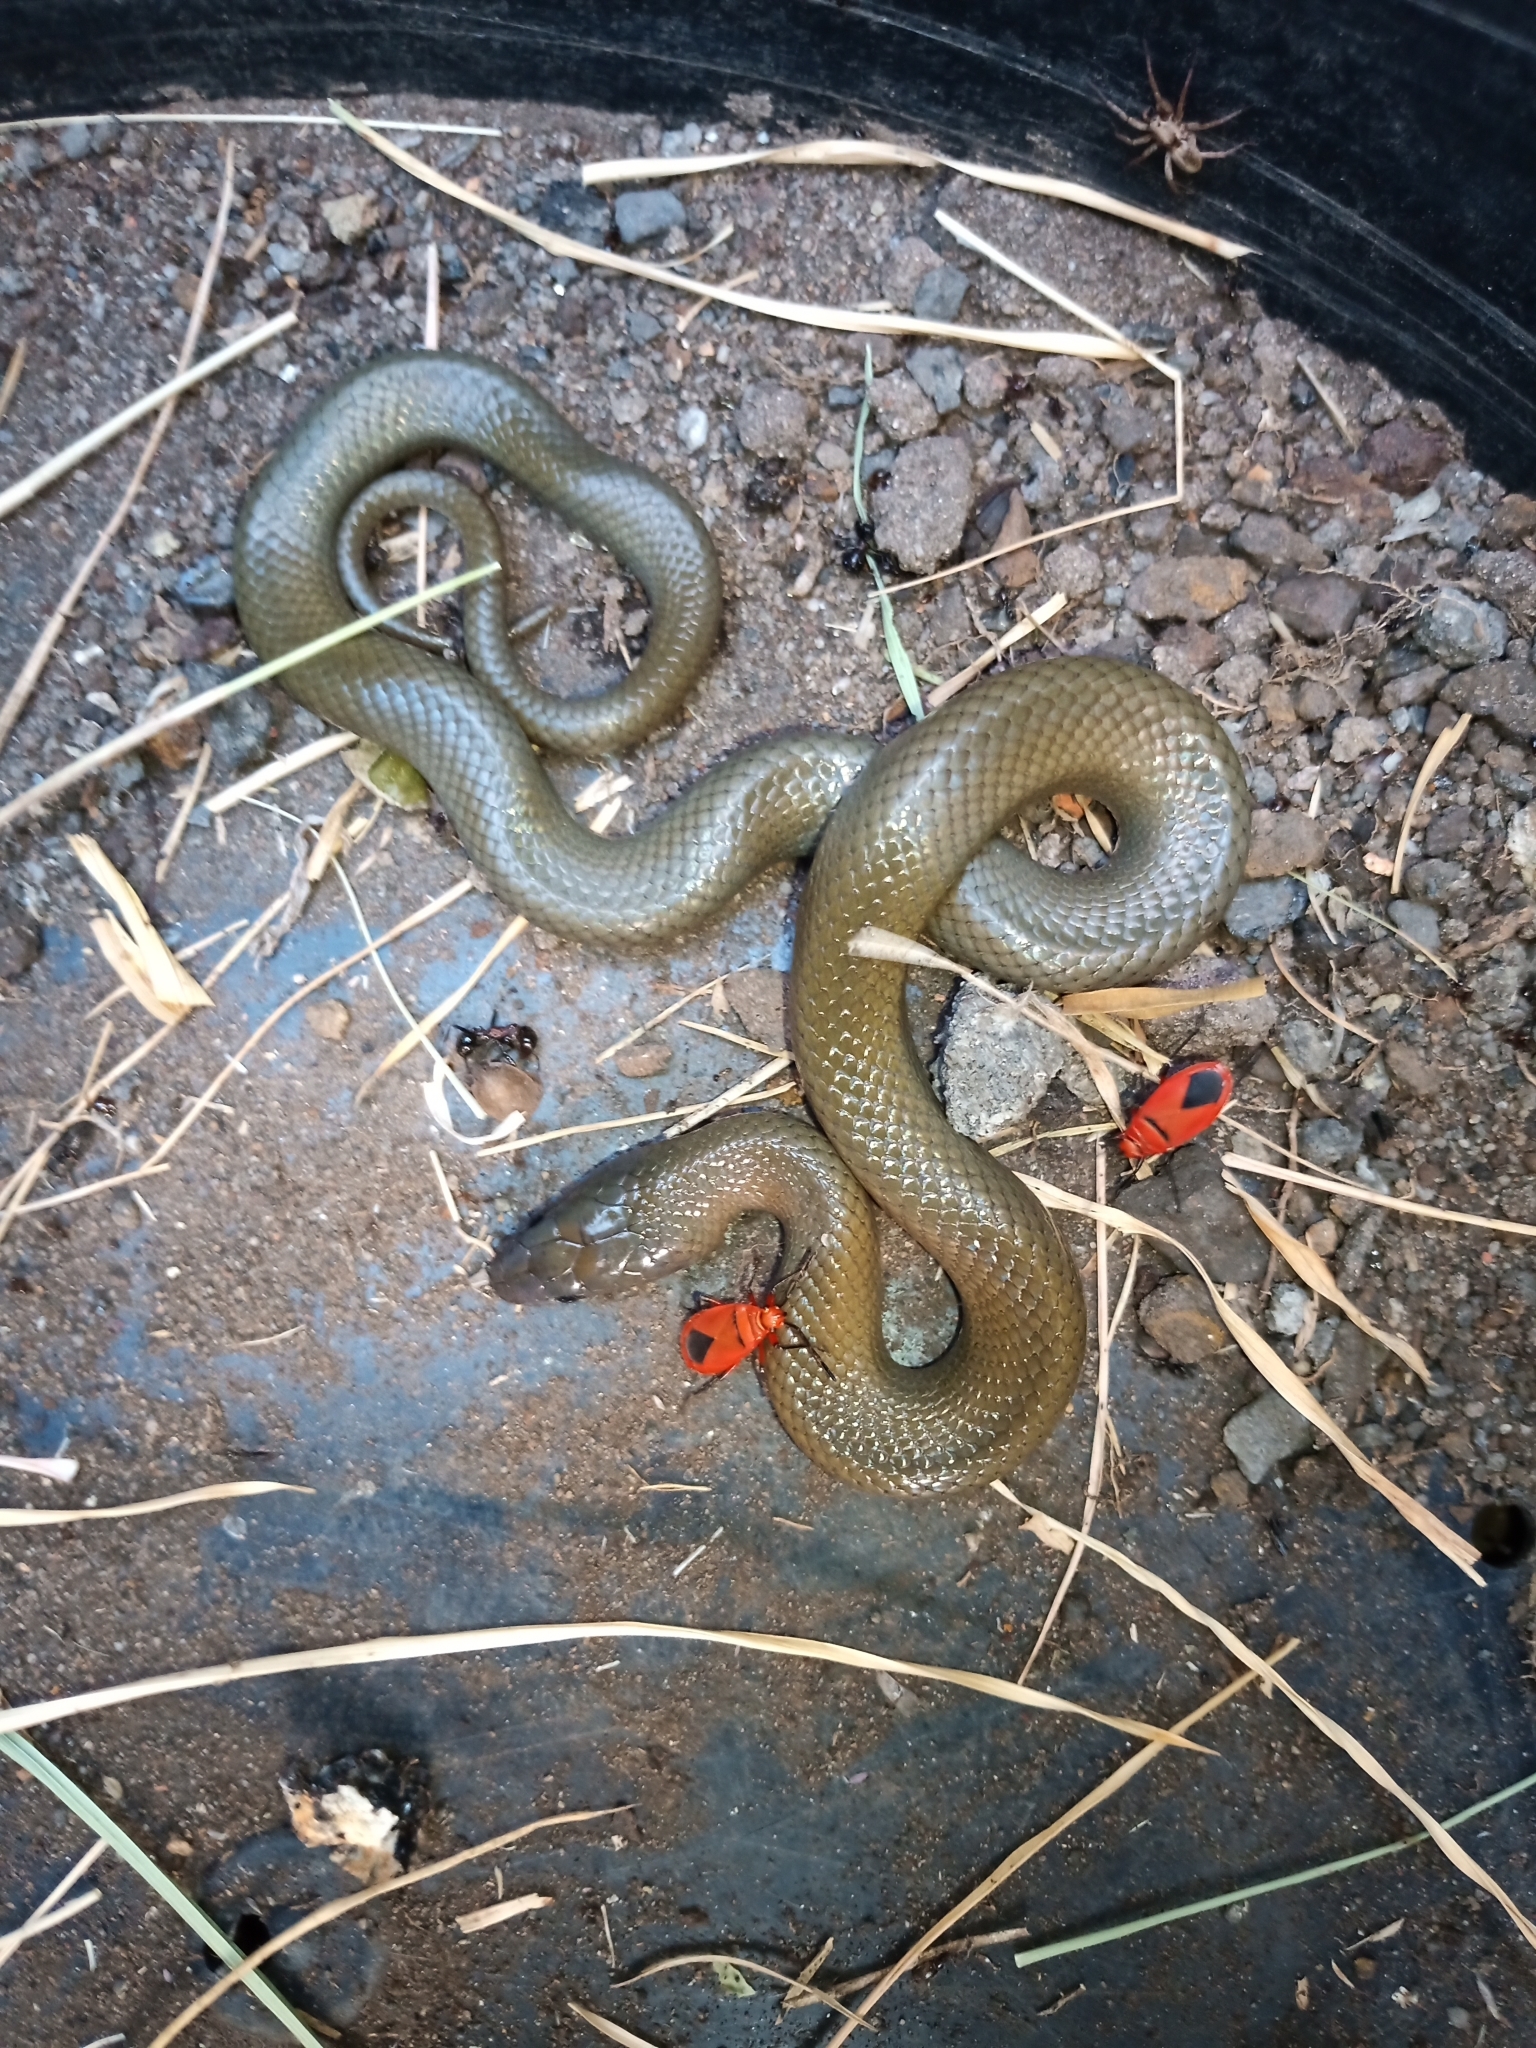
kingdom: Animalia
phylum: Chordata
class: Squamata
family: Lamprophiidae
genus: Lycodonomorphus
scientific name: Lycodonomorphus inornatus
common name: Black house snake
